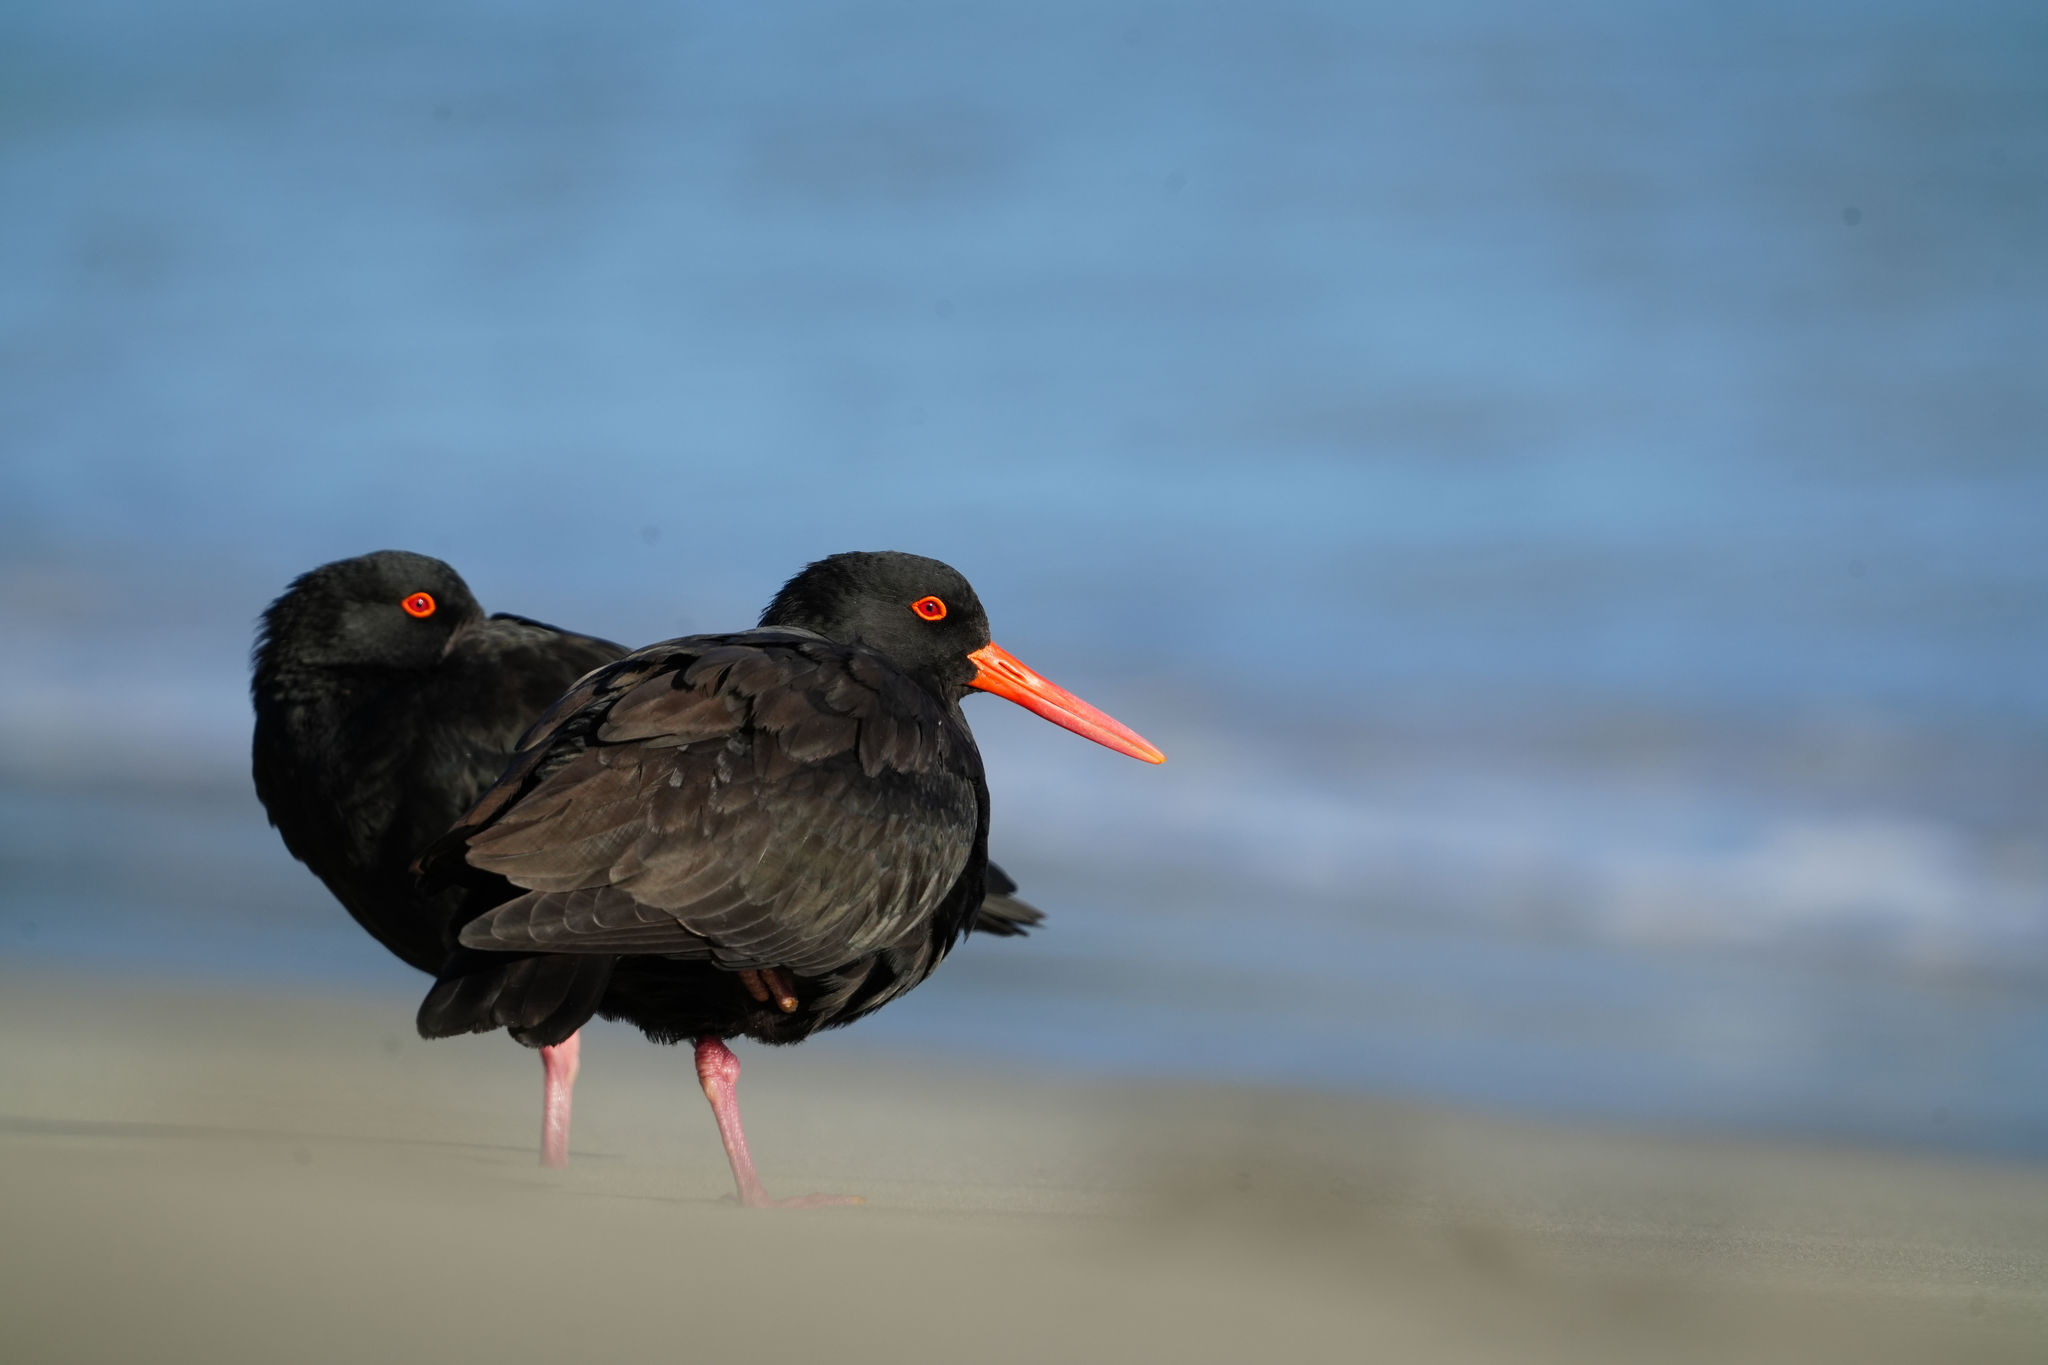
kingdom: Animalia
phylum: Chordata
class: Aves
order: Charadriiformes
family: Haematopodidae
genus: Haematopus
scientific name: Haematopus fuliginosus
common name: Sooty oystercatcher
